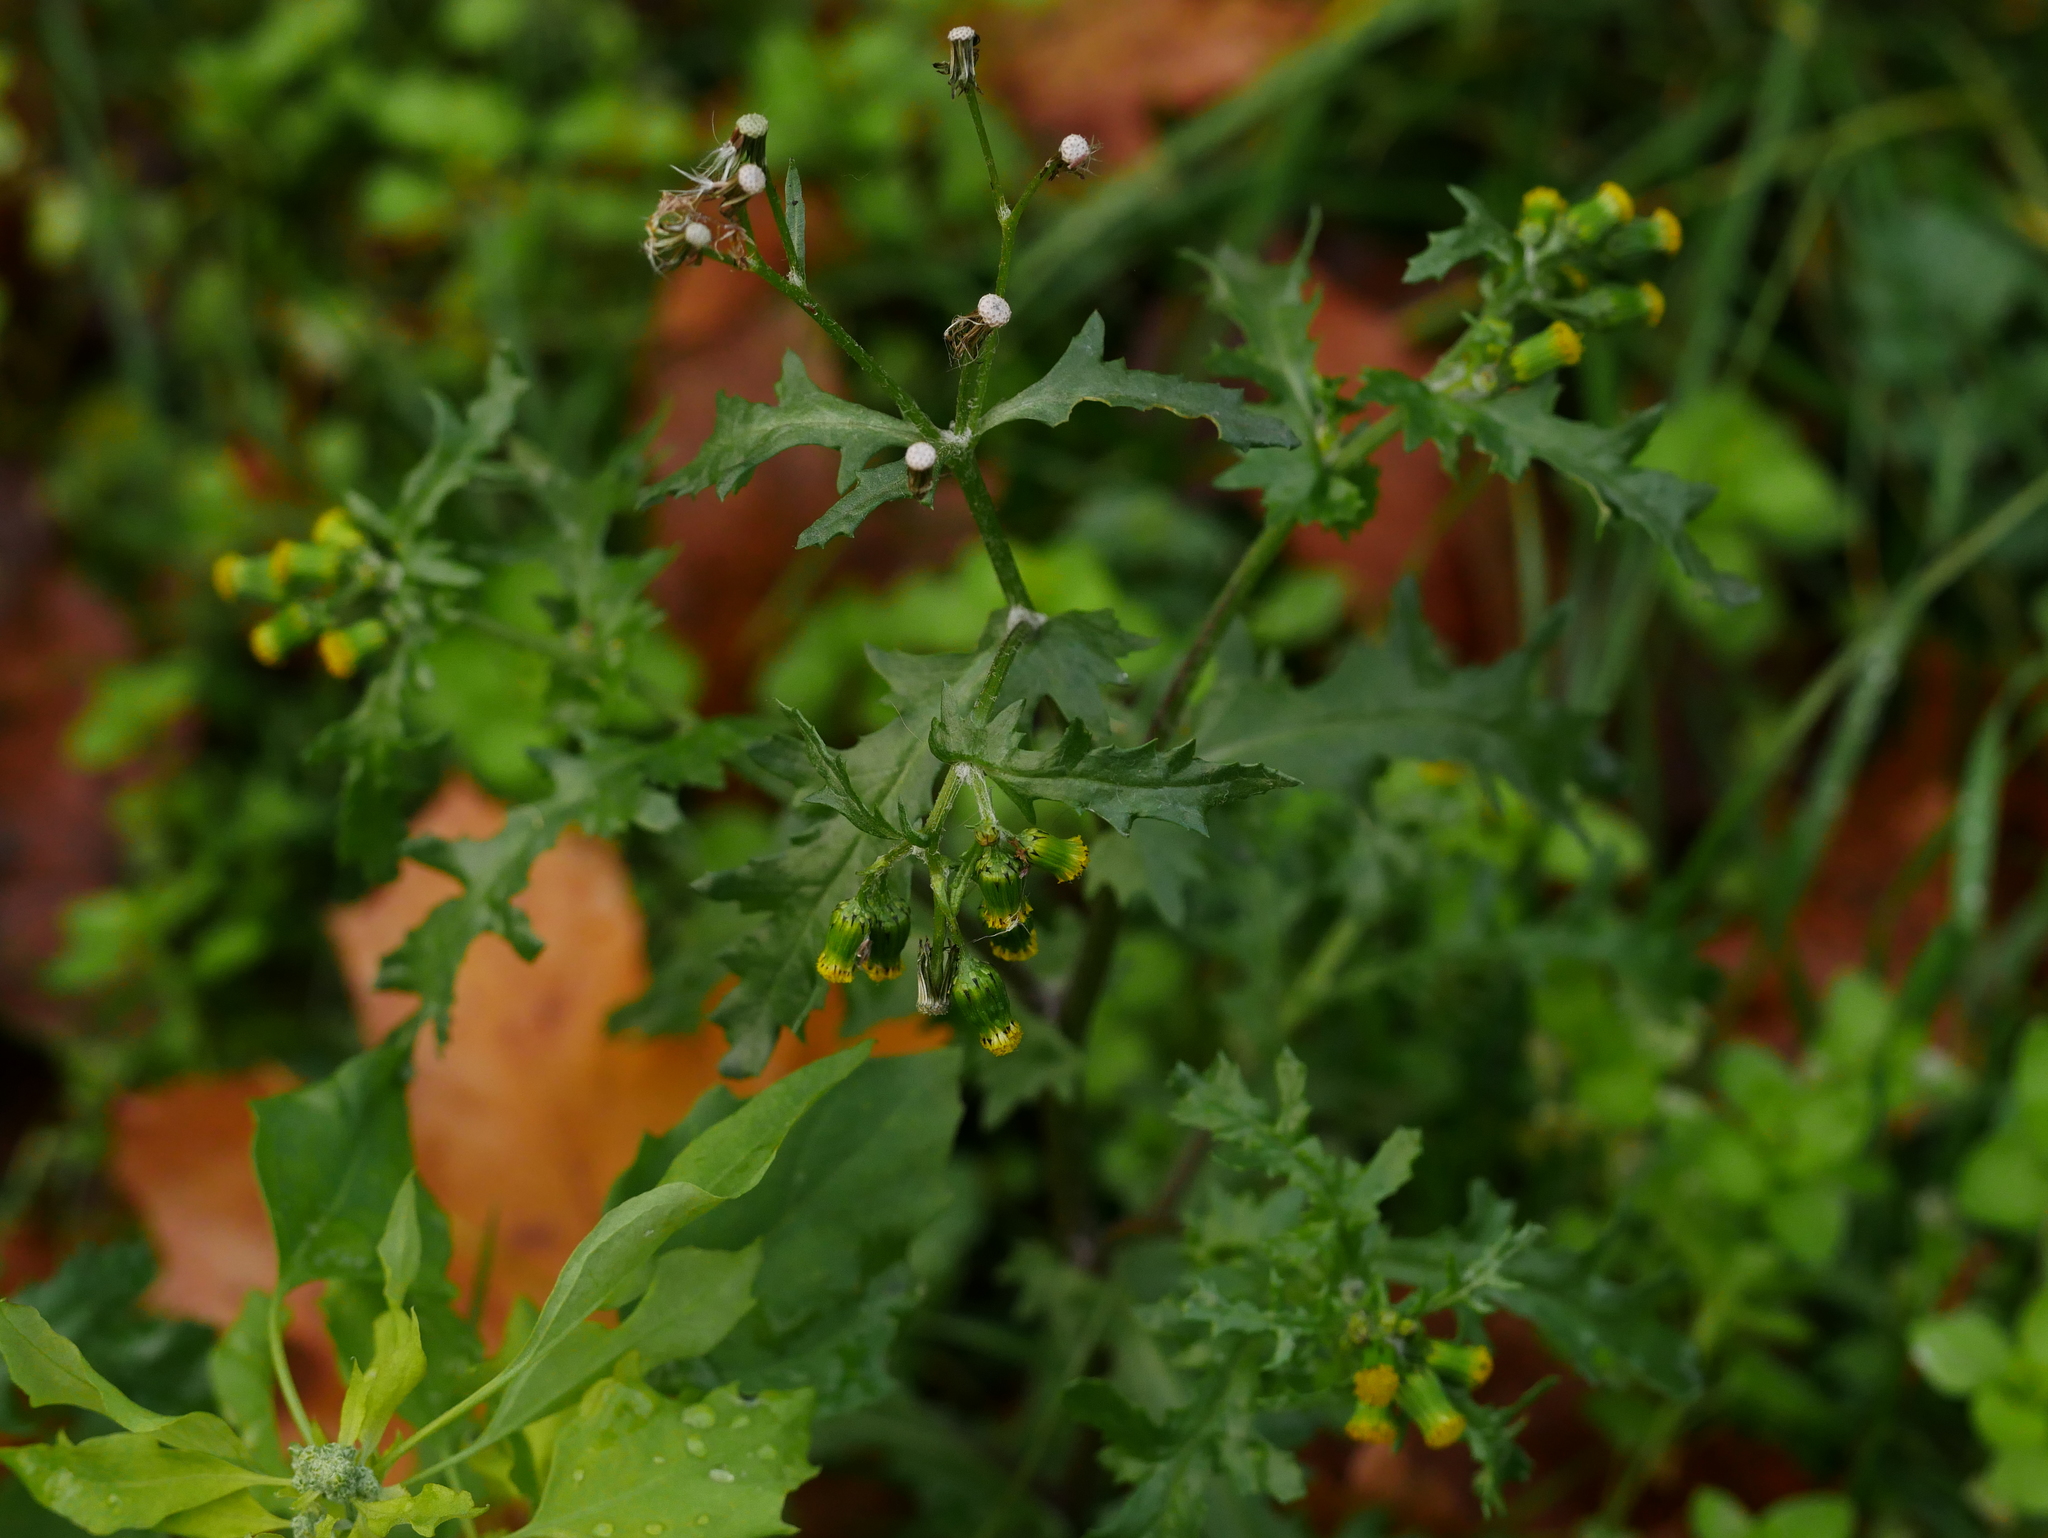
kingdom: Plantae
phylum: Tracheophyta
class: Magnoliopsida
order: Asterales
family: Asteraceae
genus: Senecio
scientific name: Senecio vulgaris
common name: Old-man-in-the-spring
